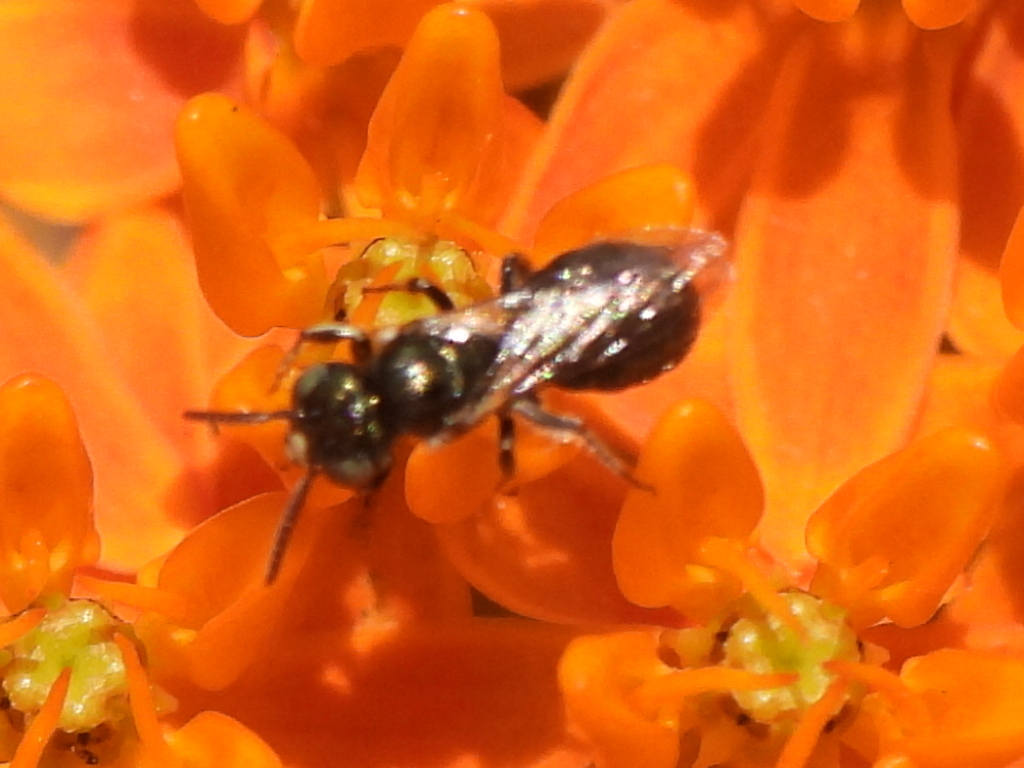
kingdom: Animalia
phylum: Arthropoda
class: Insecta
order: Hymenoptera
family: Apidae
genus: Ceratina
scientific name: Ceratina strenua
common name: Nimble carpenter bee
